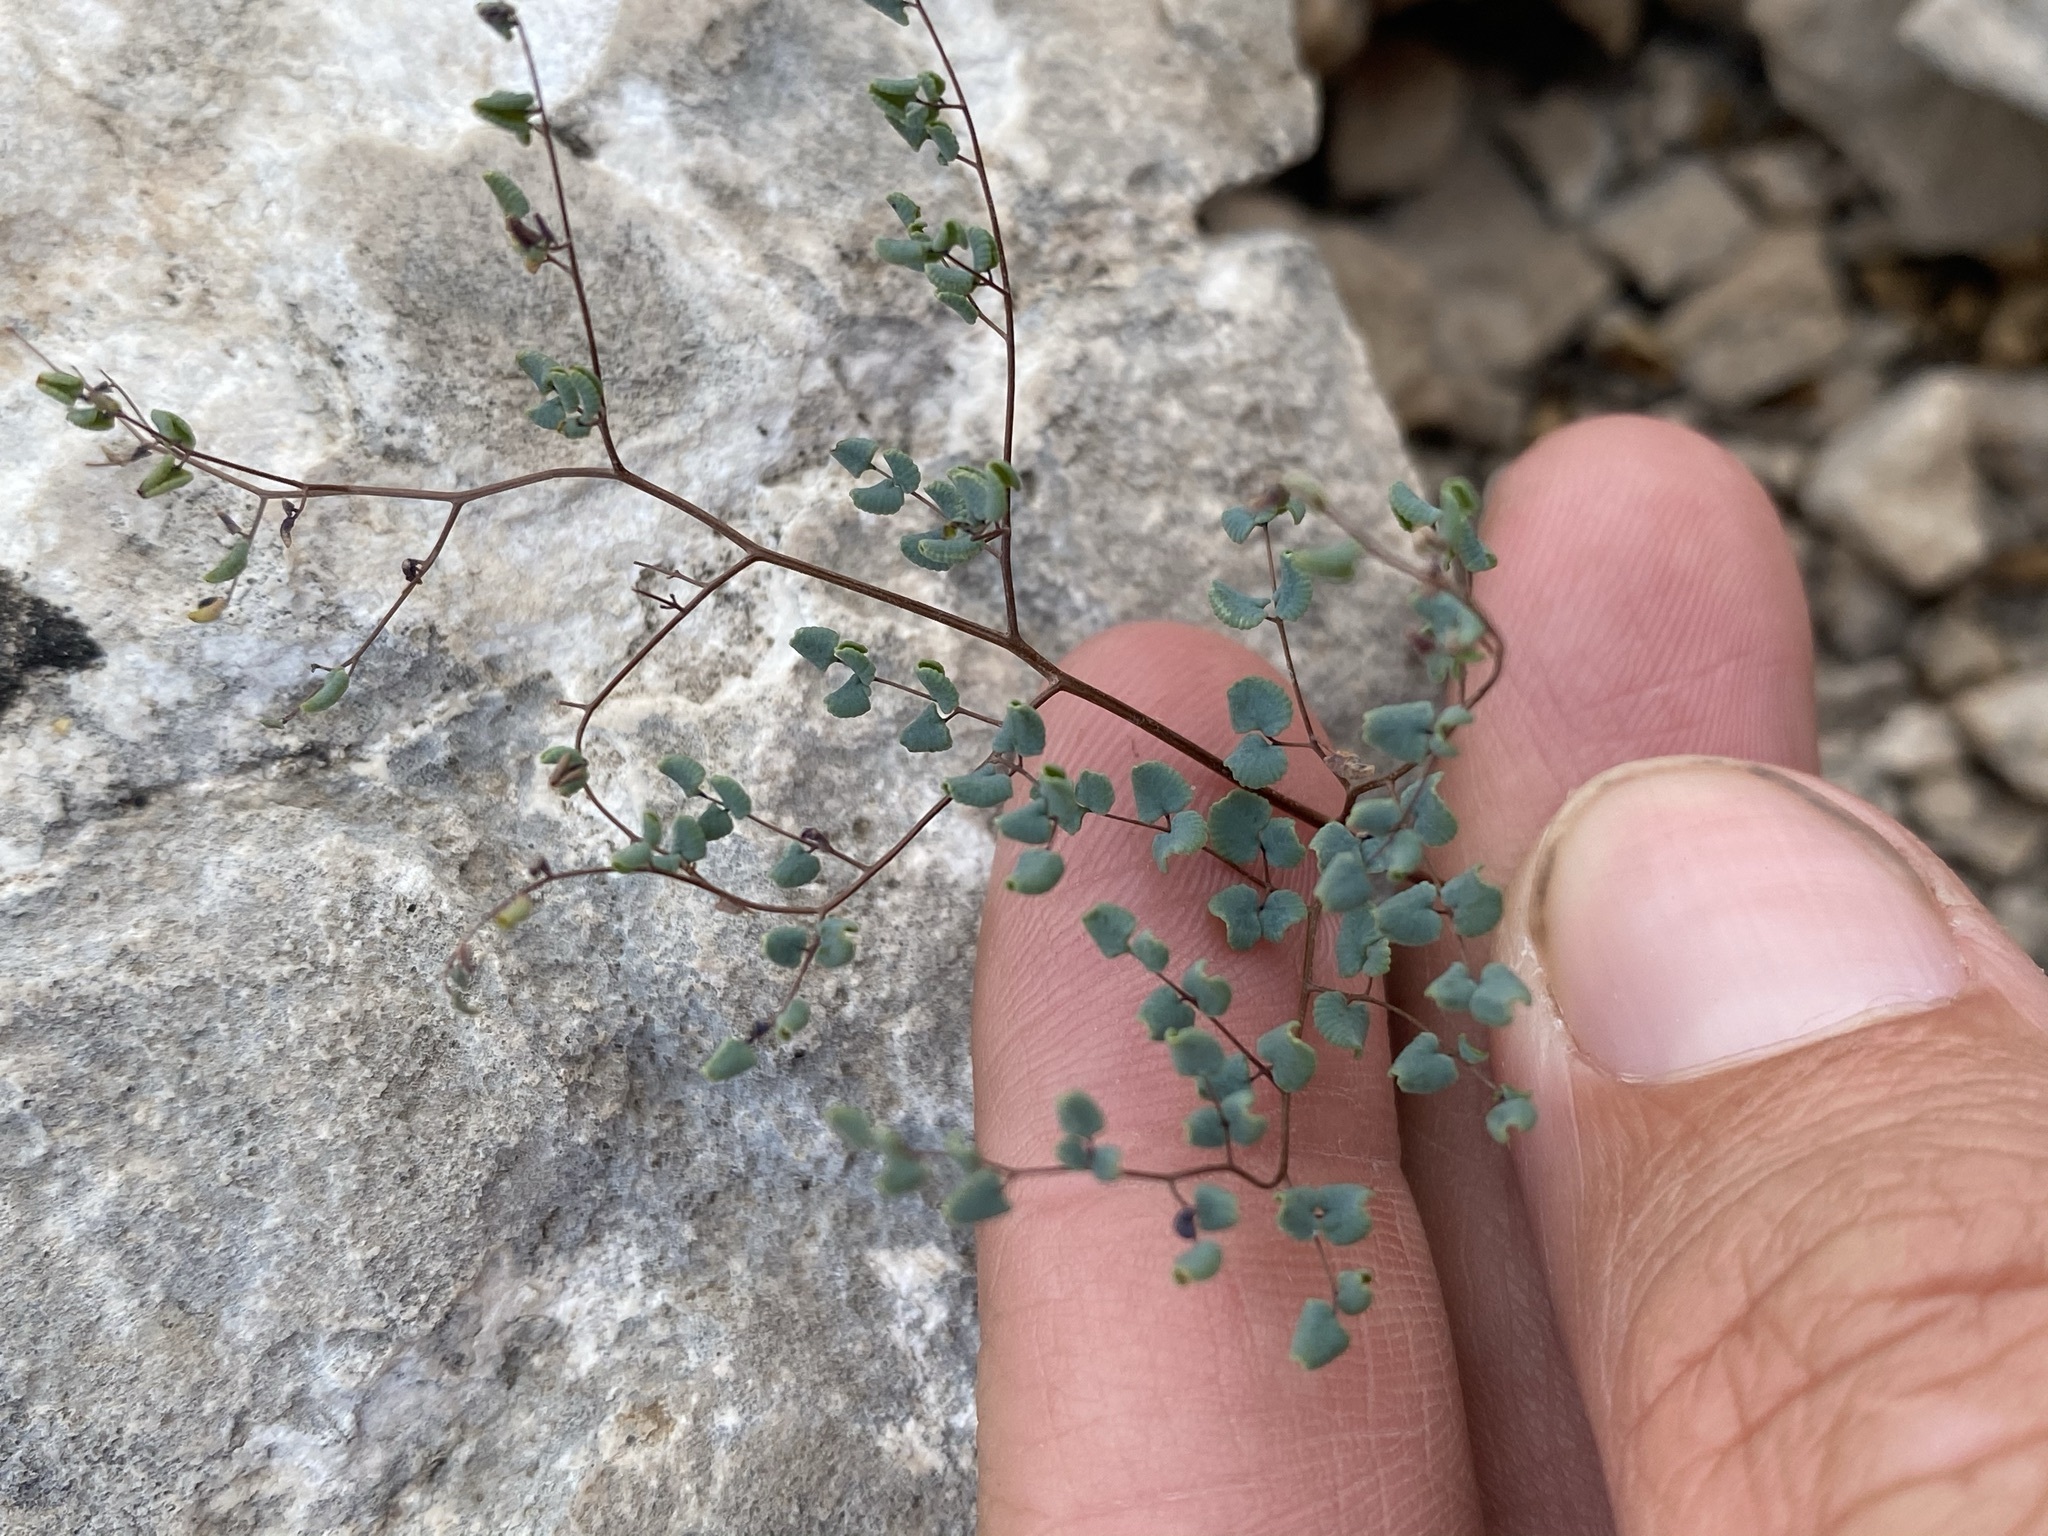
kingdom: Plantae
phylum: Tracheophyta
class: Polypodiopsida
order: Polypodiales
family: Pteridaceae
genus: Argyrochosma
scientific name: Argyrochosma microphylla
